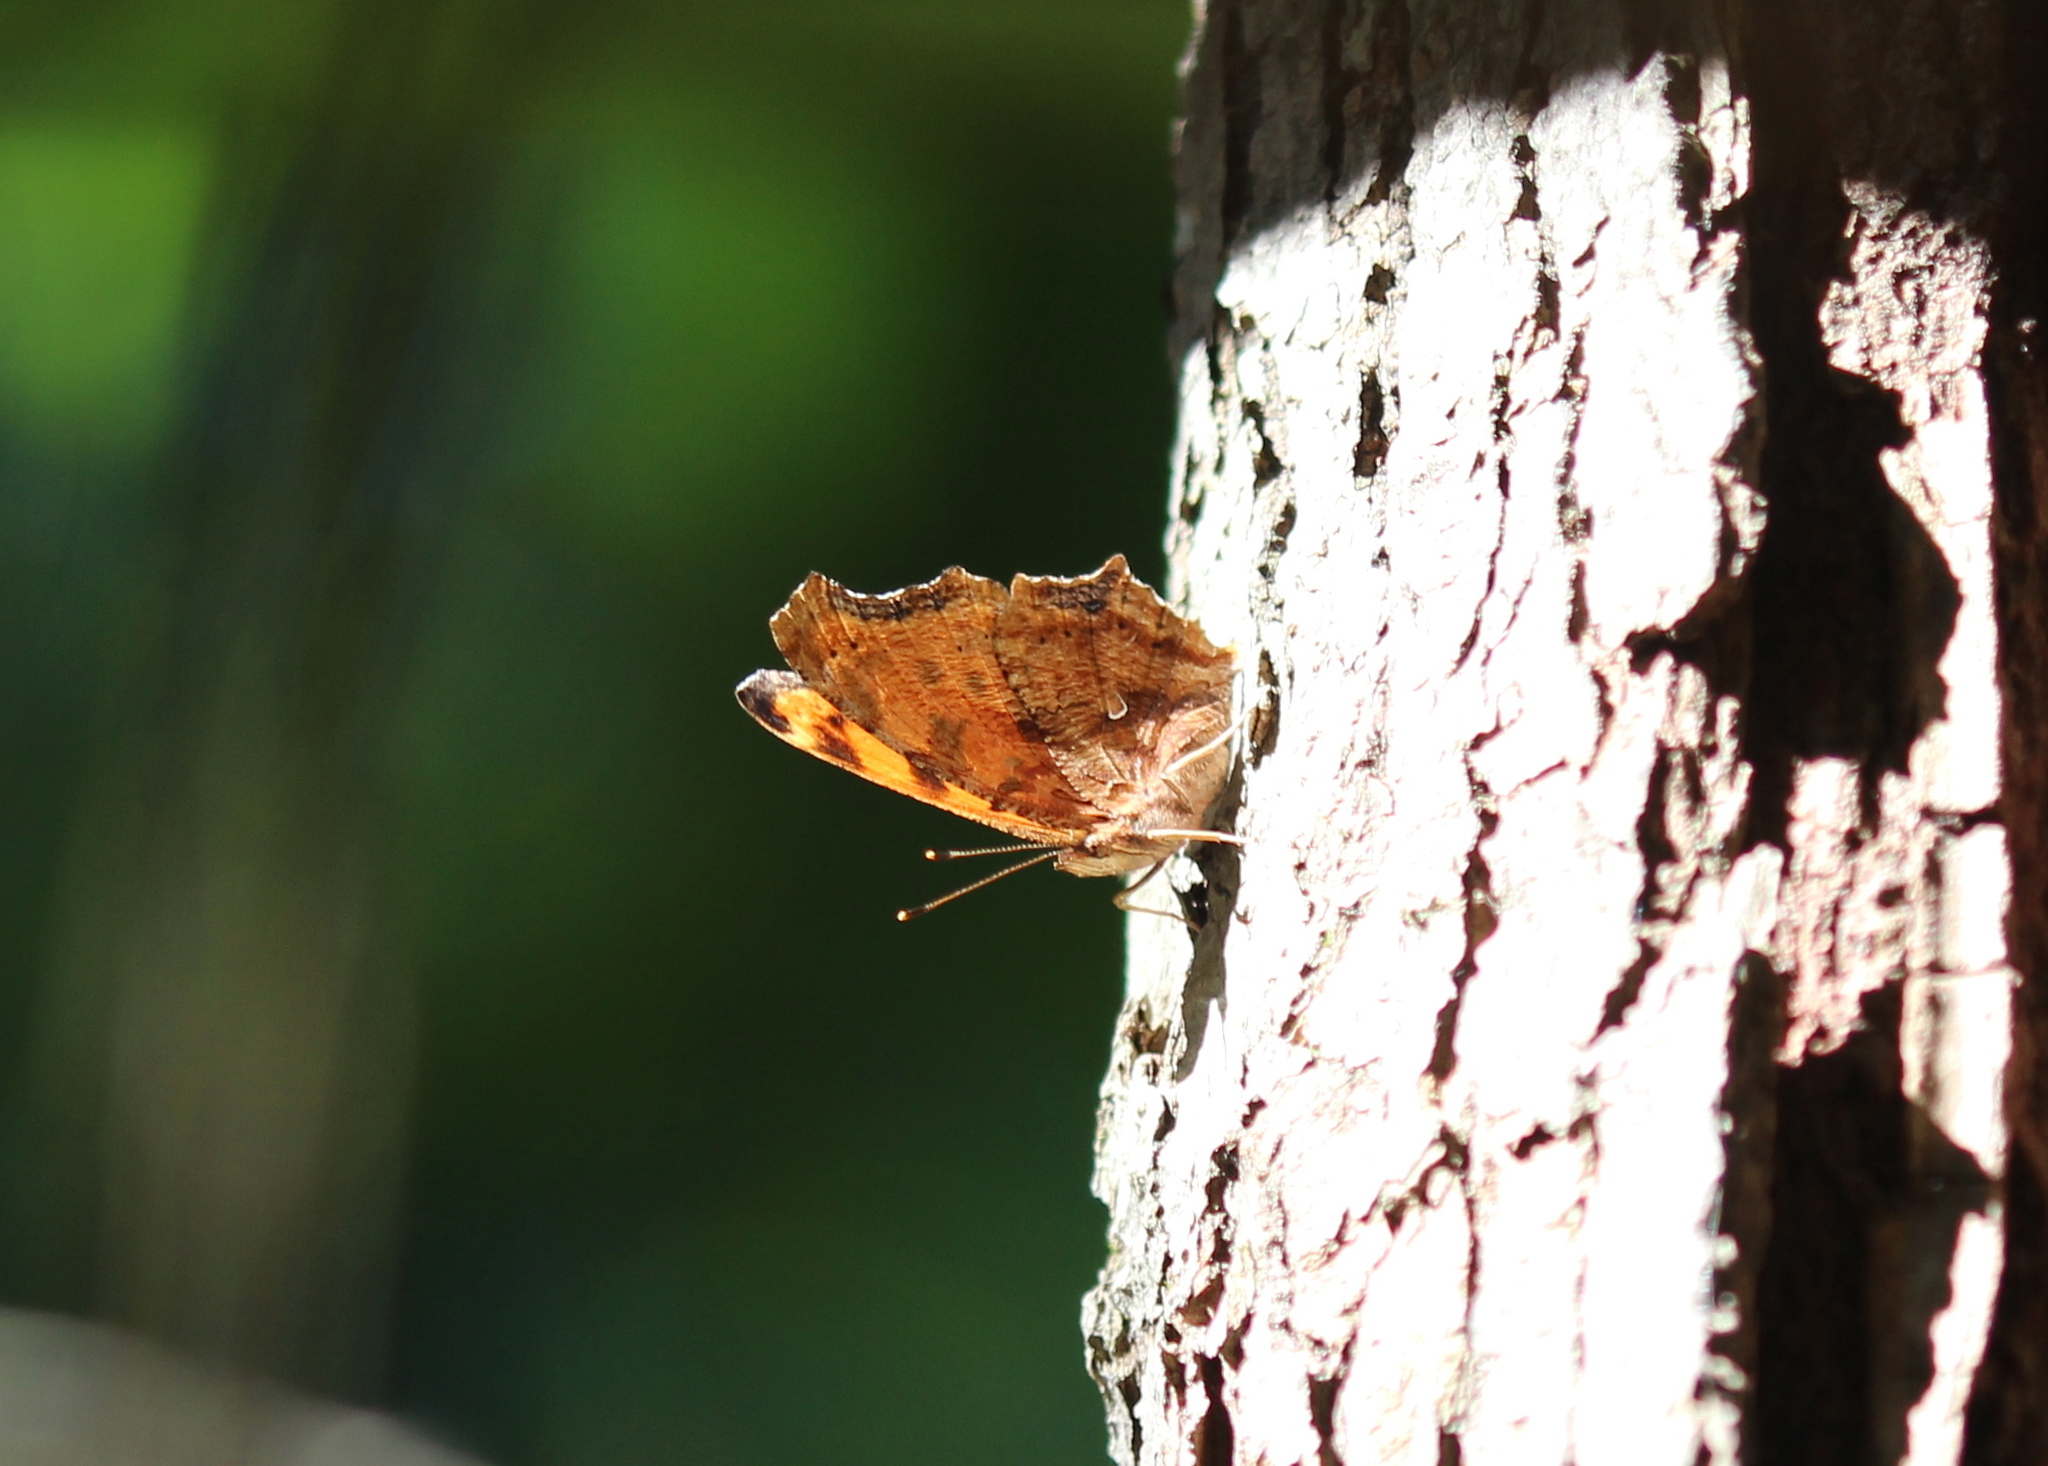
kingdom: Animalia
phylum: Arthropoda
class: Insecta
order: Lepidoptera
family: Nymphalidae
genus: Polygonia
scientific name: Polygonia comma
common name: Eastern comma
